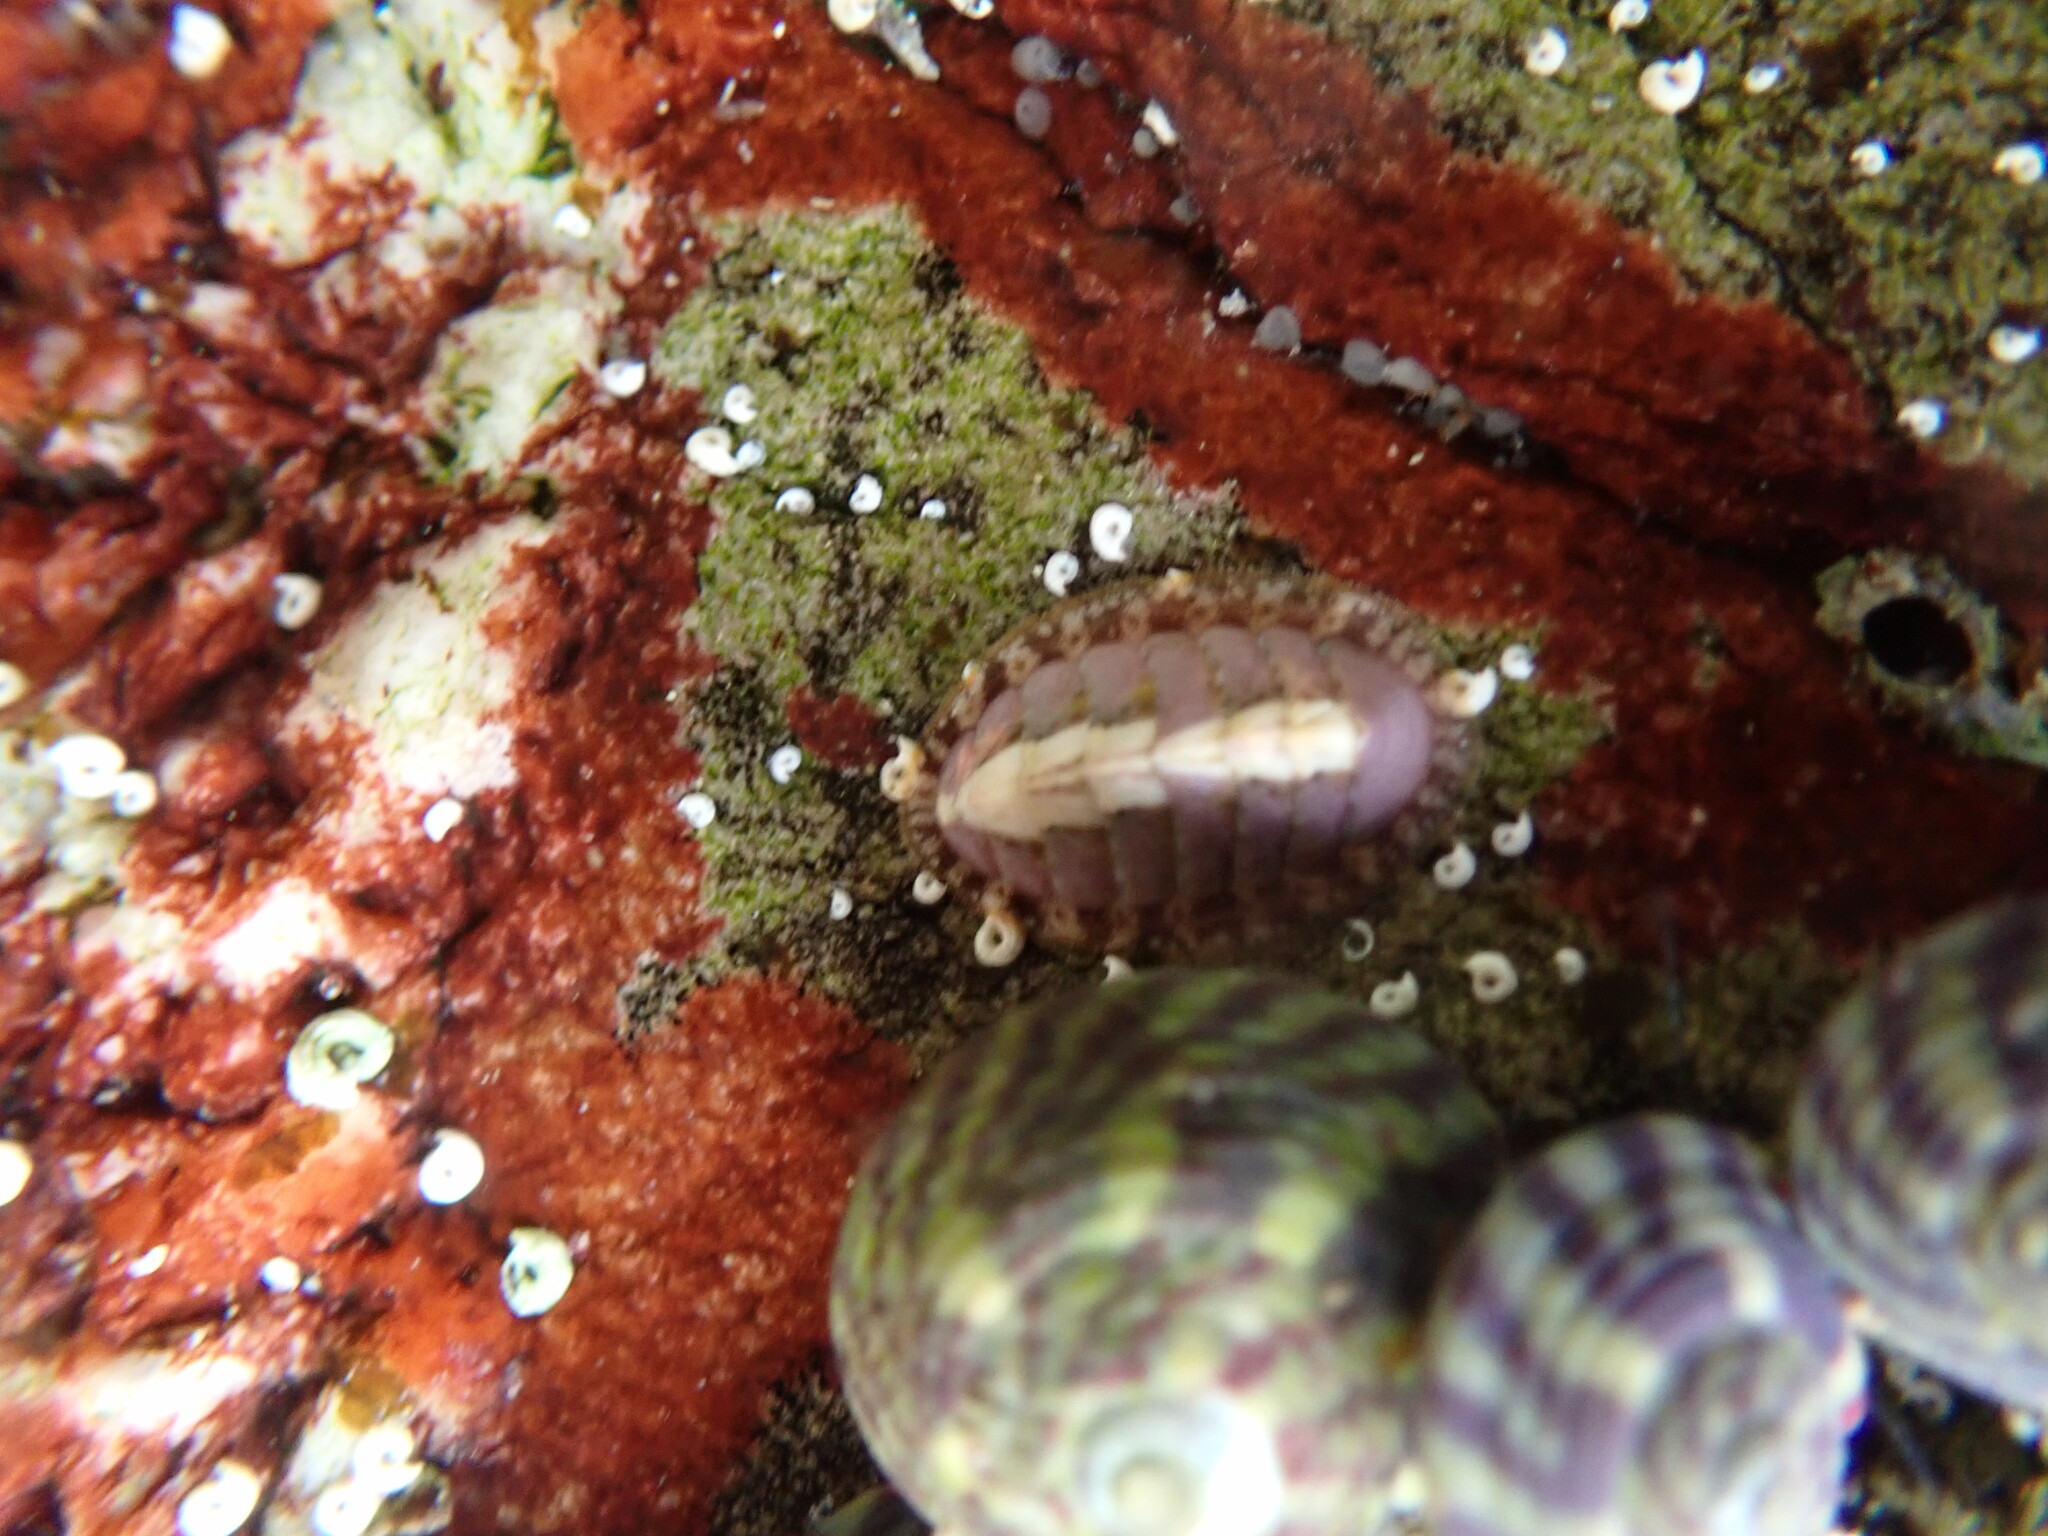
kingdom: Animalia
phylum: Mollusca
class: Polyplacophora
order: Chitonida
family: Tonicellidae
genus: Lepidochitona
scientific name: Lepidochitona cinerea
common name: Cinereous chiton
